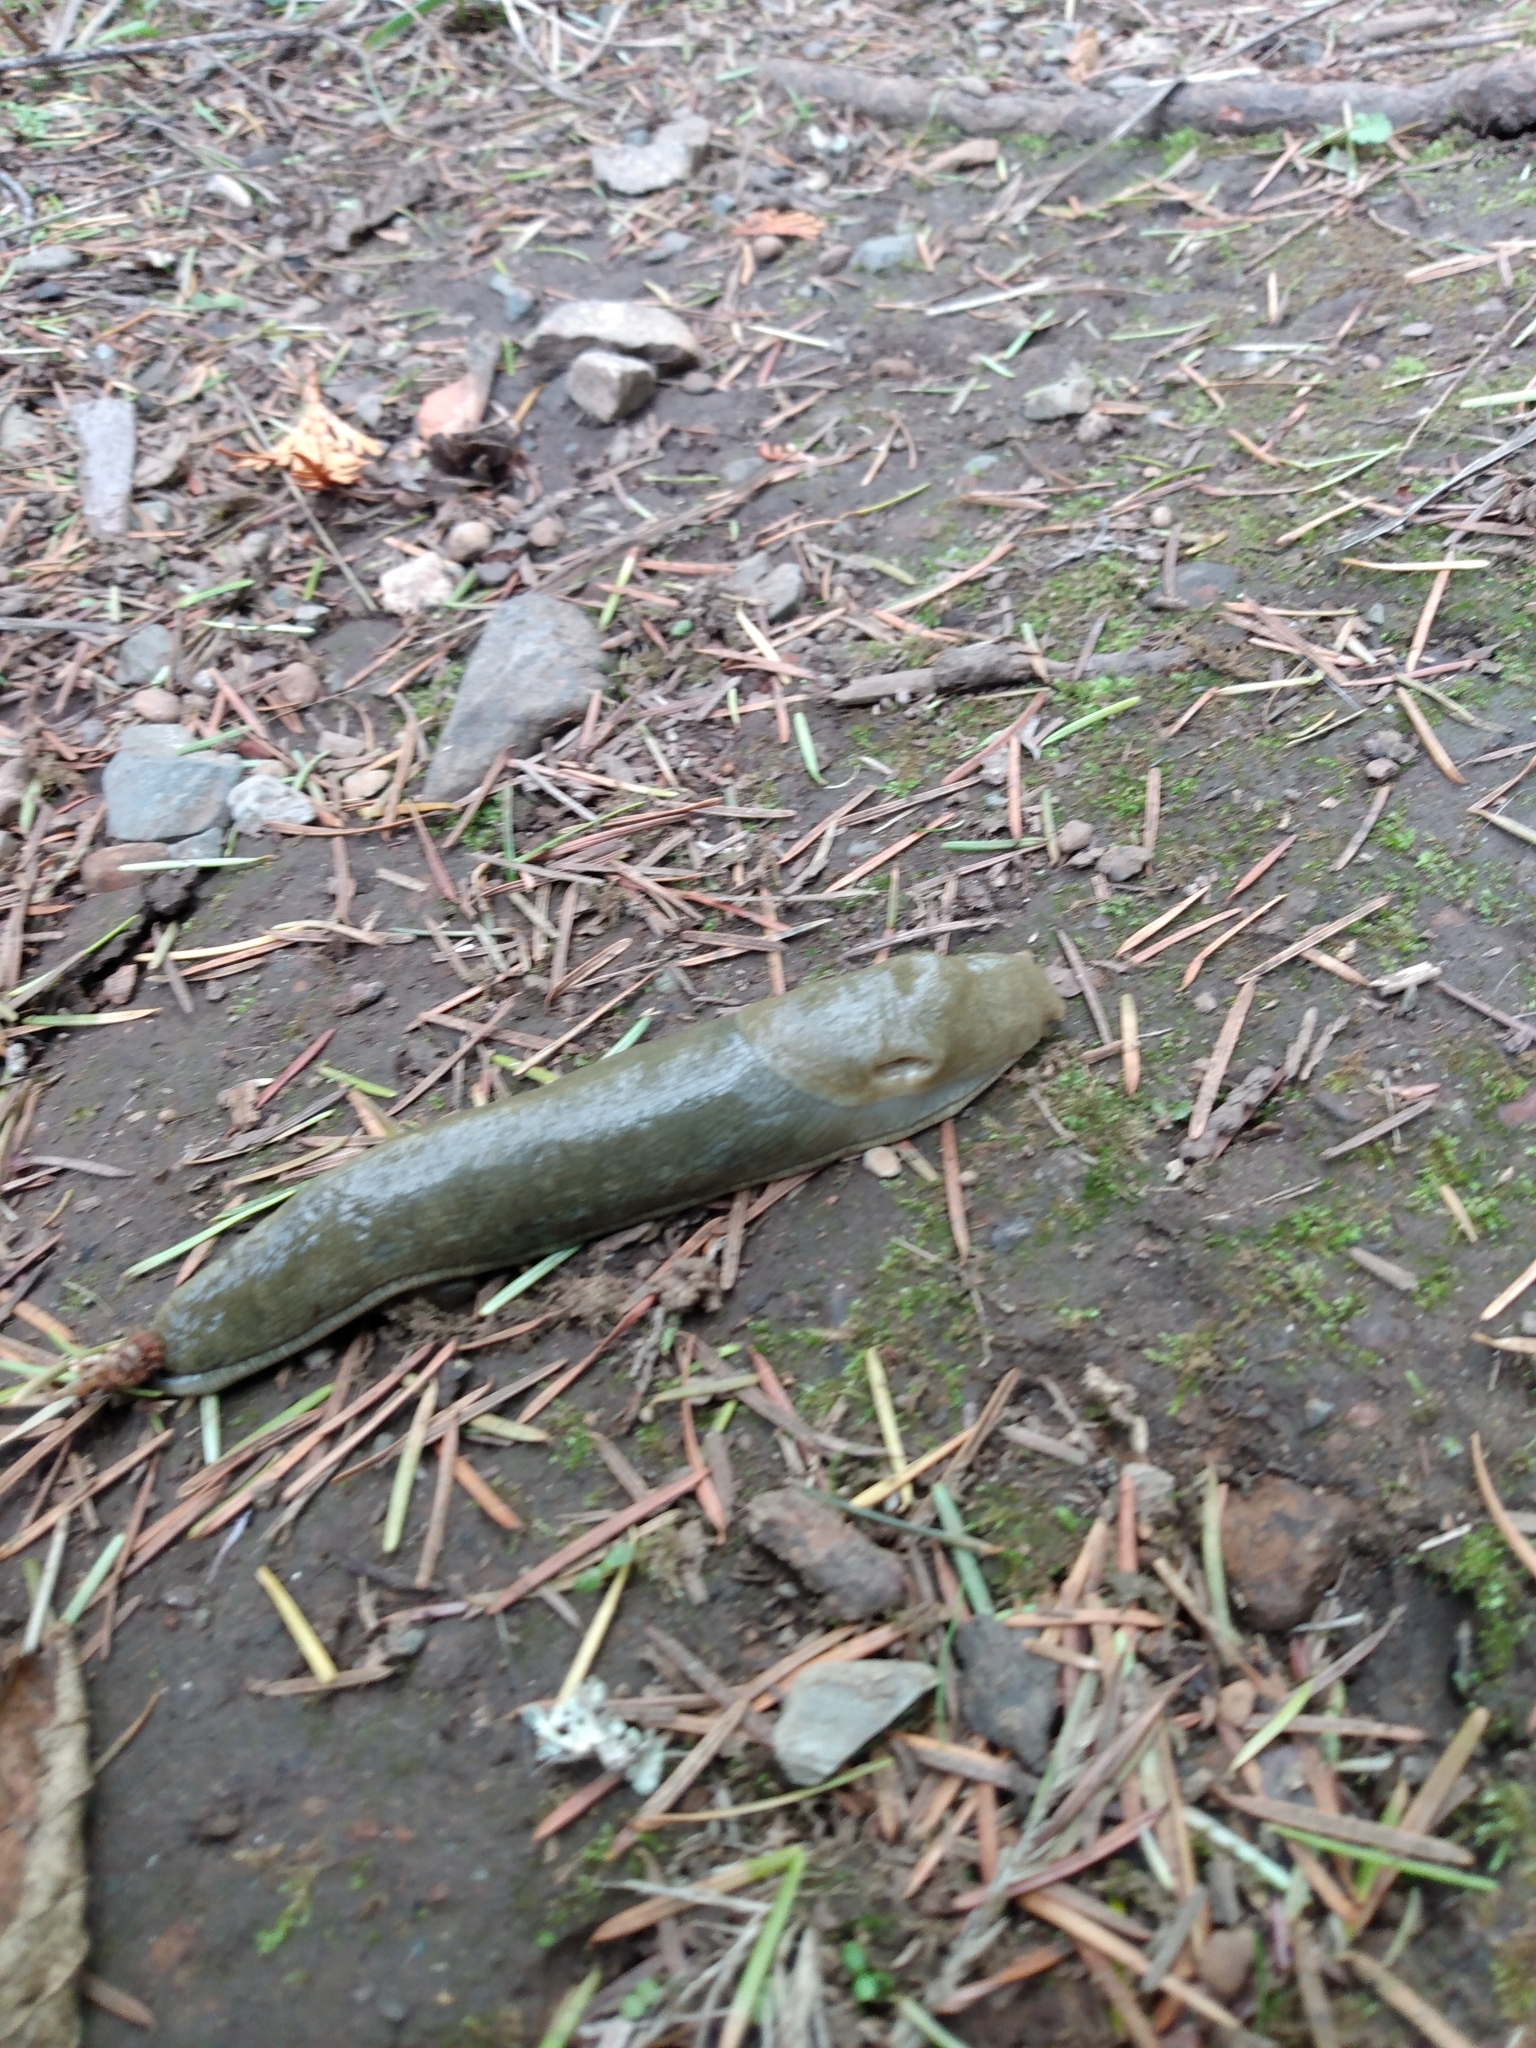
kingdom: Animalia
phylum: Mollusca
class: Gastropoda
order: Stylommatophora
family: Ariolimacidae
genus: Ariolimax
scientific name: Ariolimax columbianus
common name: Pacific banana slug
